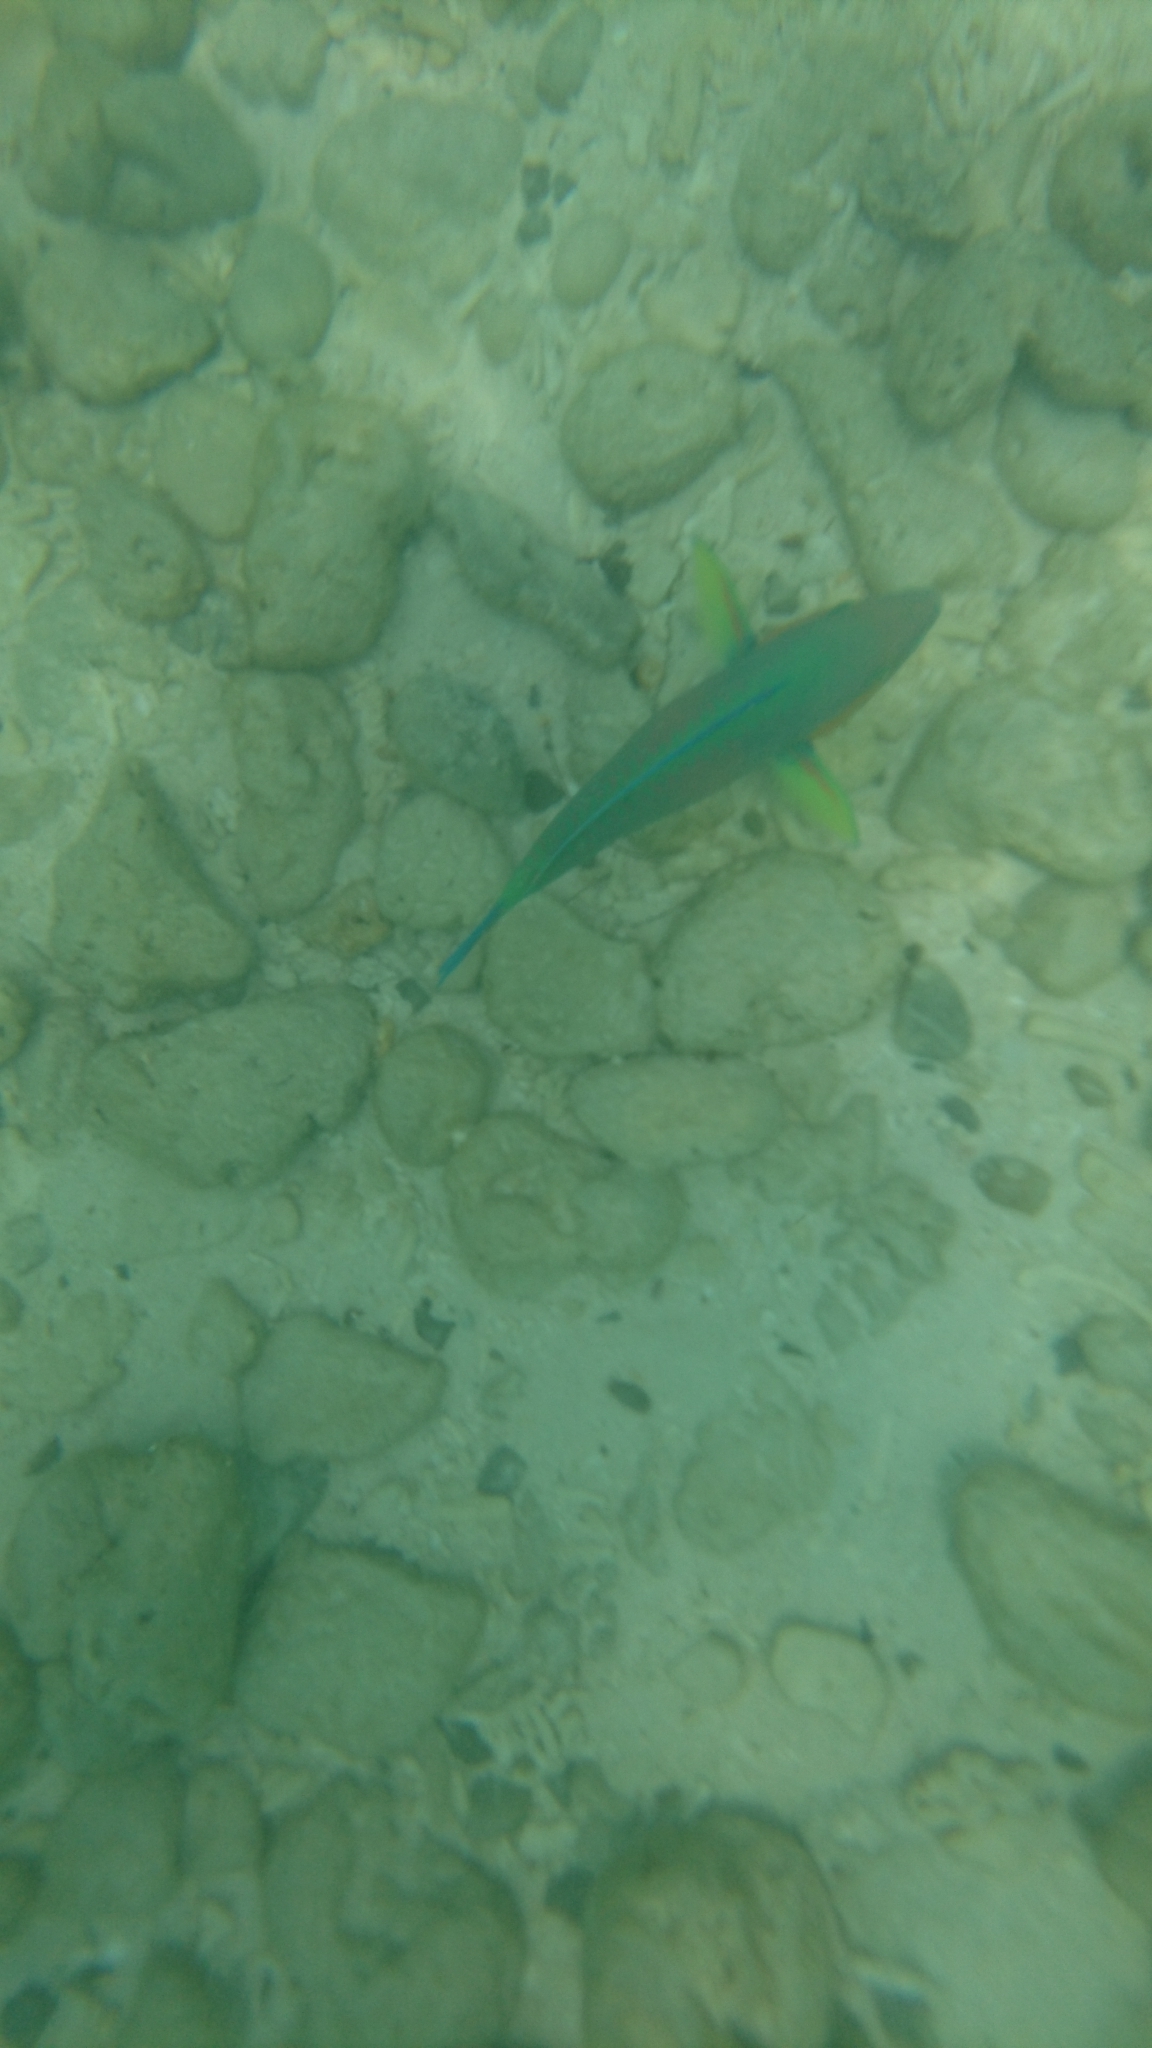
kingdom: Animalia
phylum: Chordata
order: Perciformes
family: Scaridae
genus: Scarus
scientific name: Scarus rivulatus
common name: Surf parrotfish
